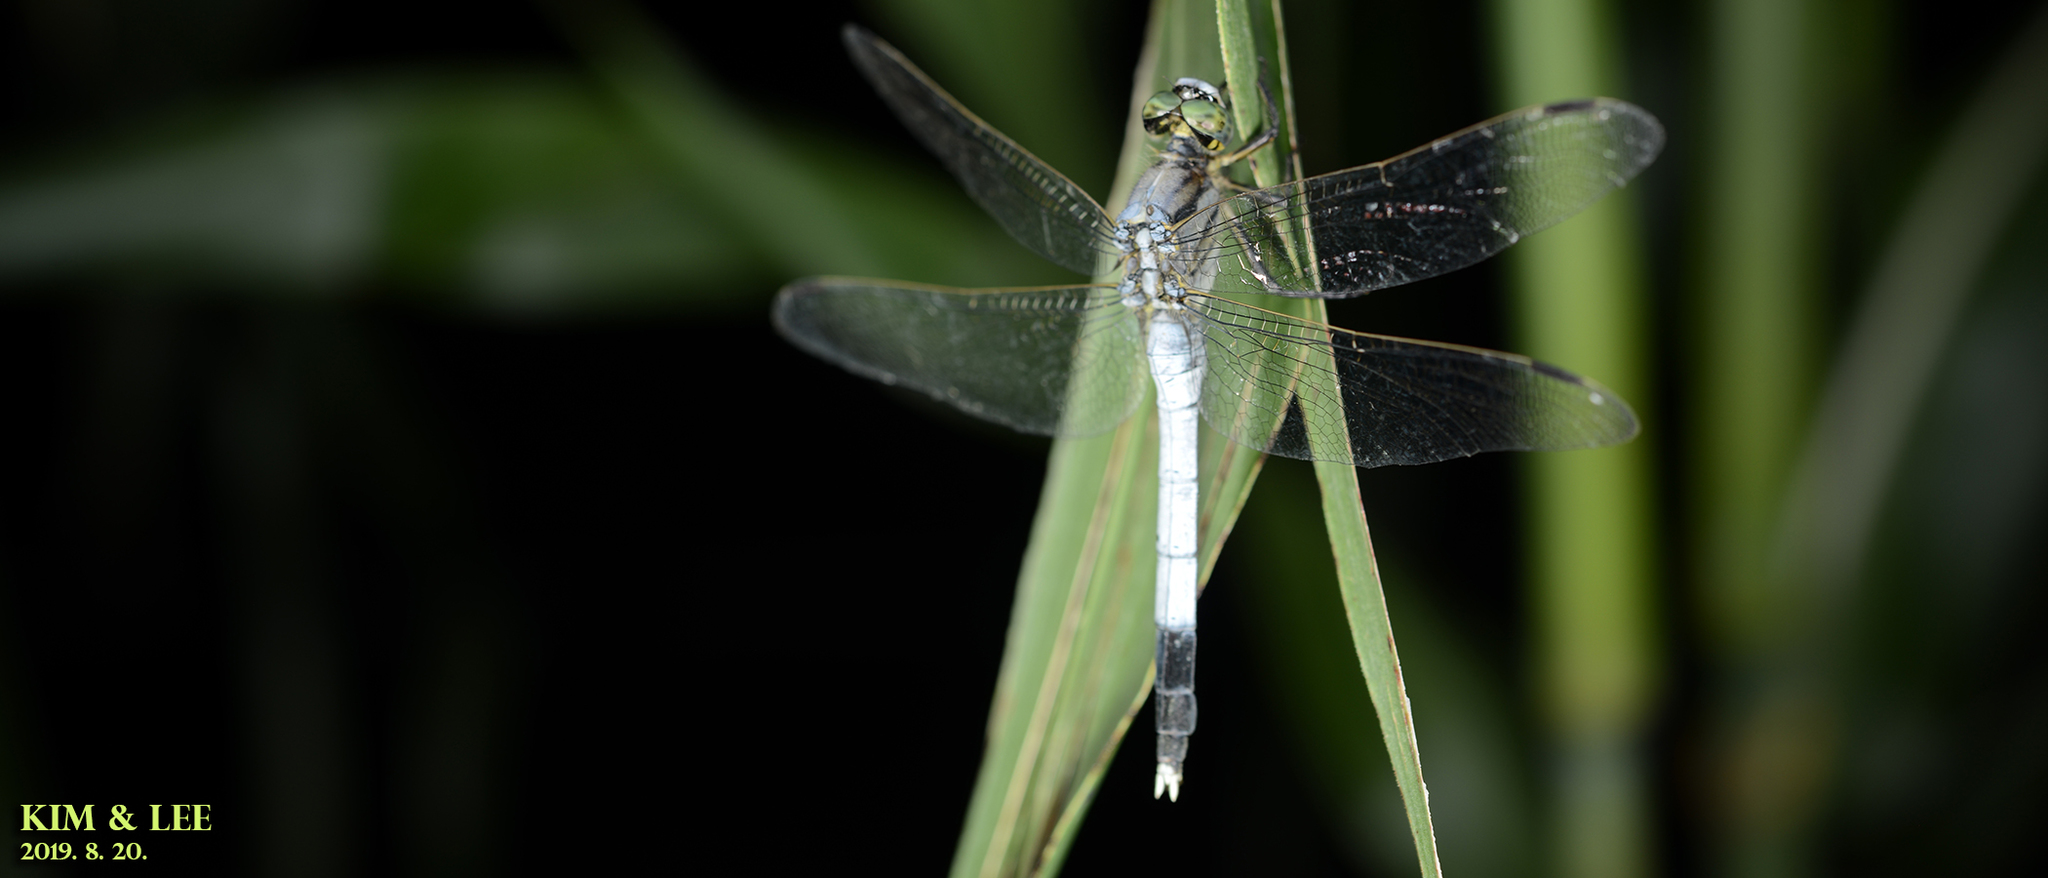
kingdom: Animalia
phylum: Arthropoda
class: Insecta
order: Odonata
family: Libellulidae
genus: Orthetrum
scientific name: Orthetrum albistylum
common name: White-tailed skimmer
